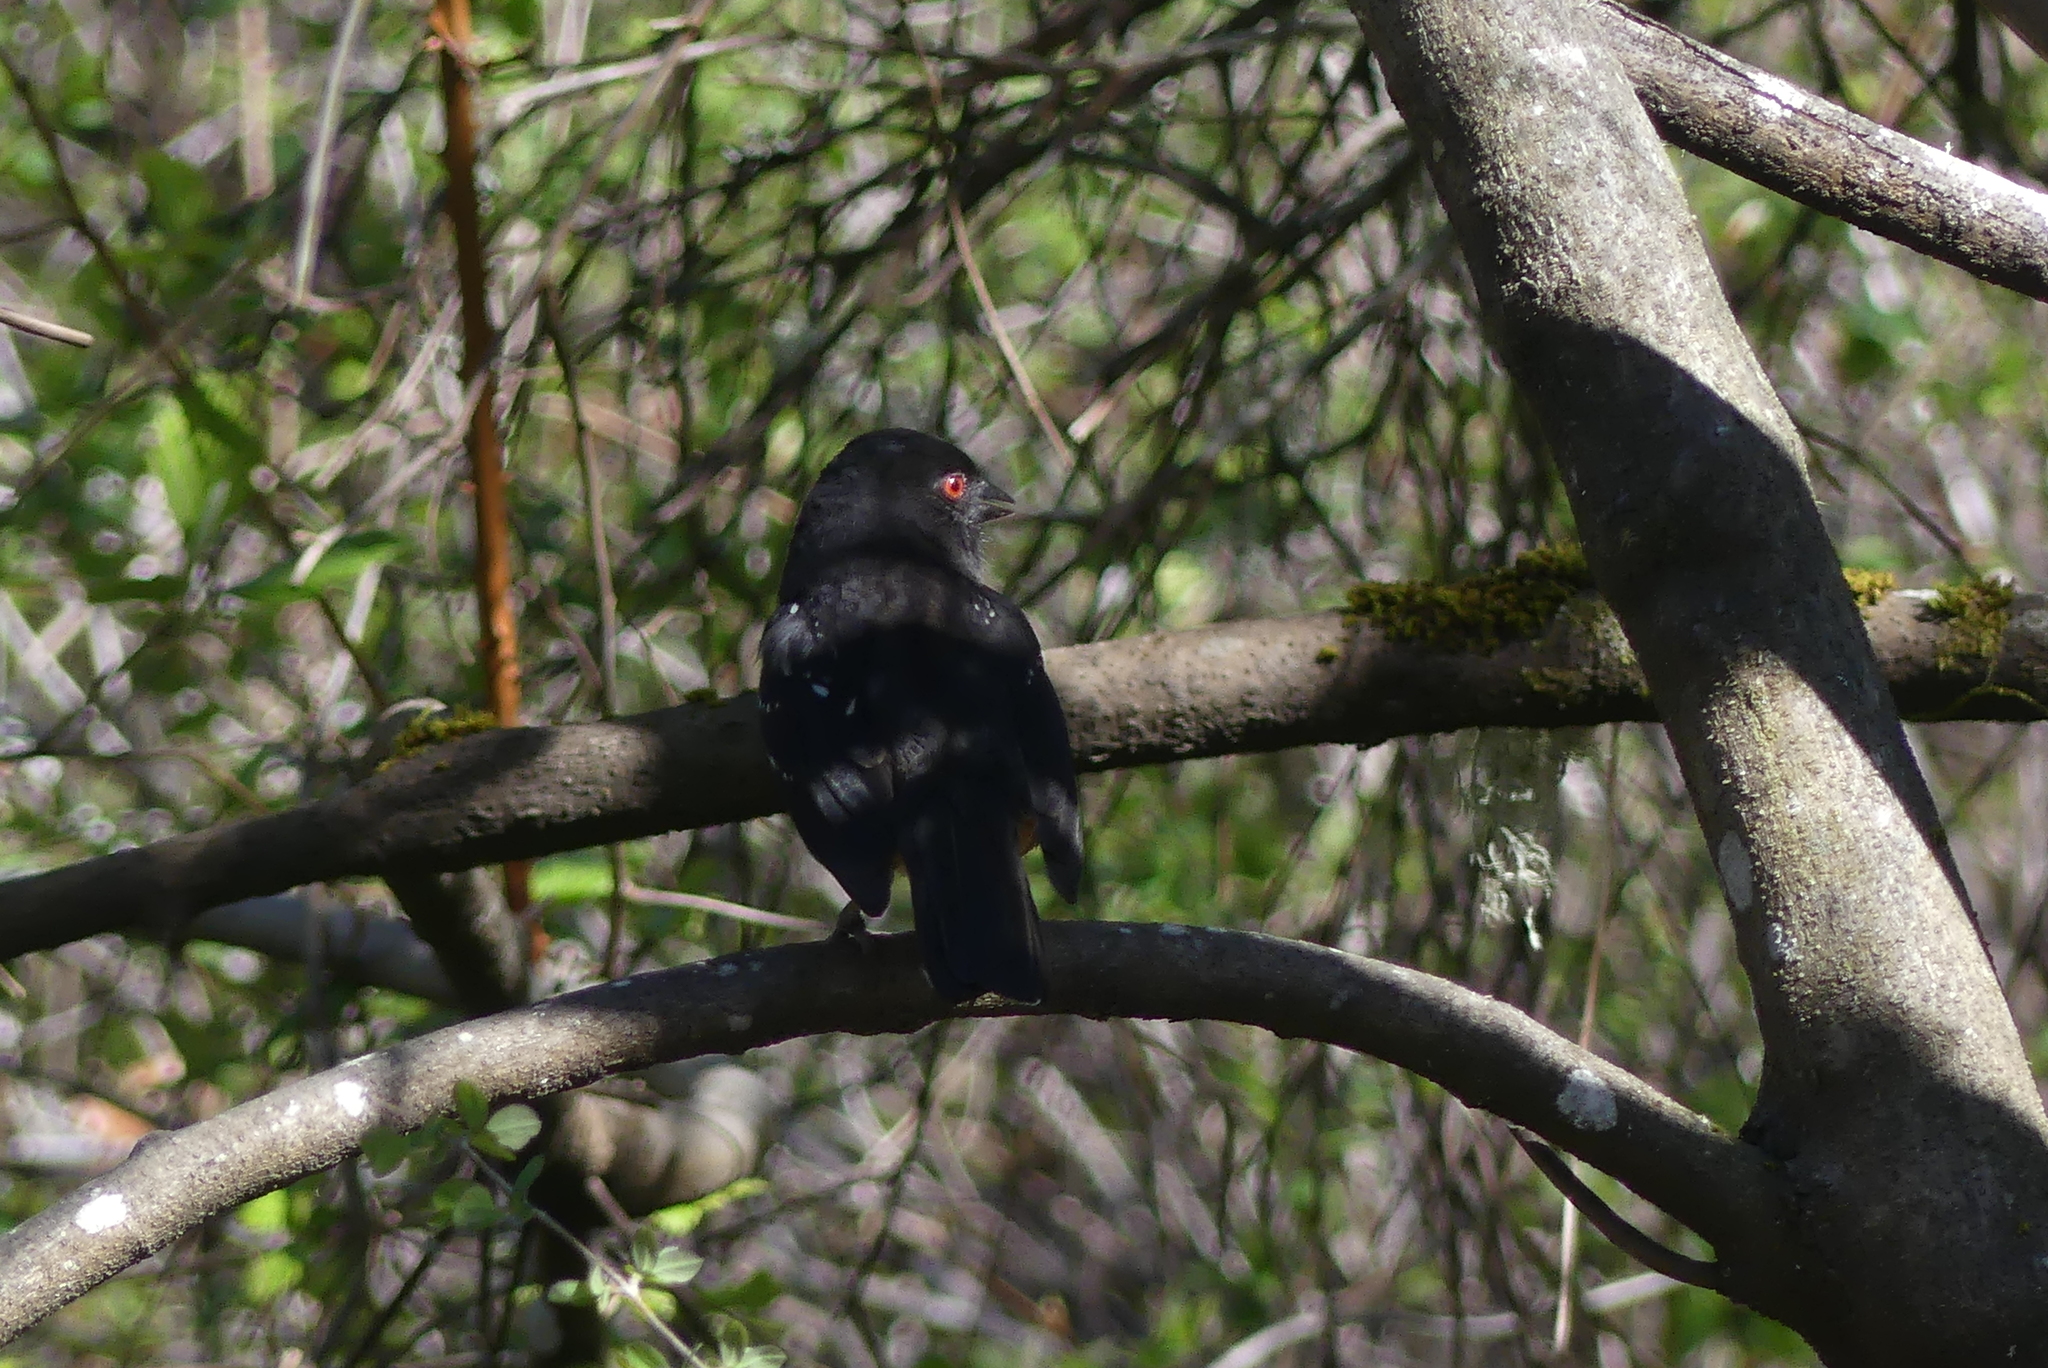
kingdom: Animalia
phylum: Chordata
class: Aves
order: Passeriformes
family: Passerellidae
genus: Pipilo
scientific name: Pipilo maculatus
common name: Spotted towhee
